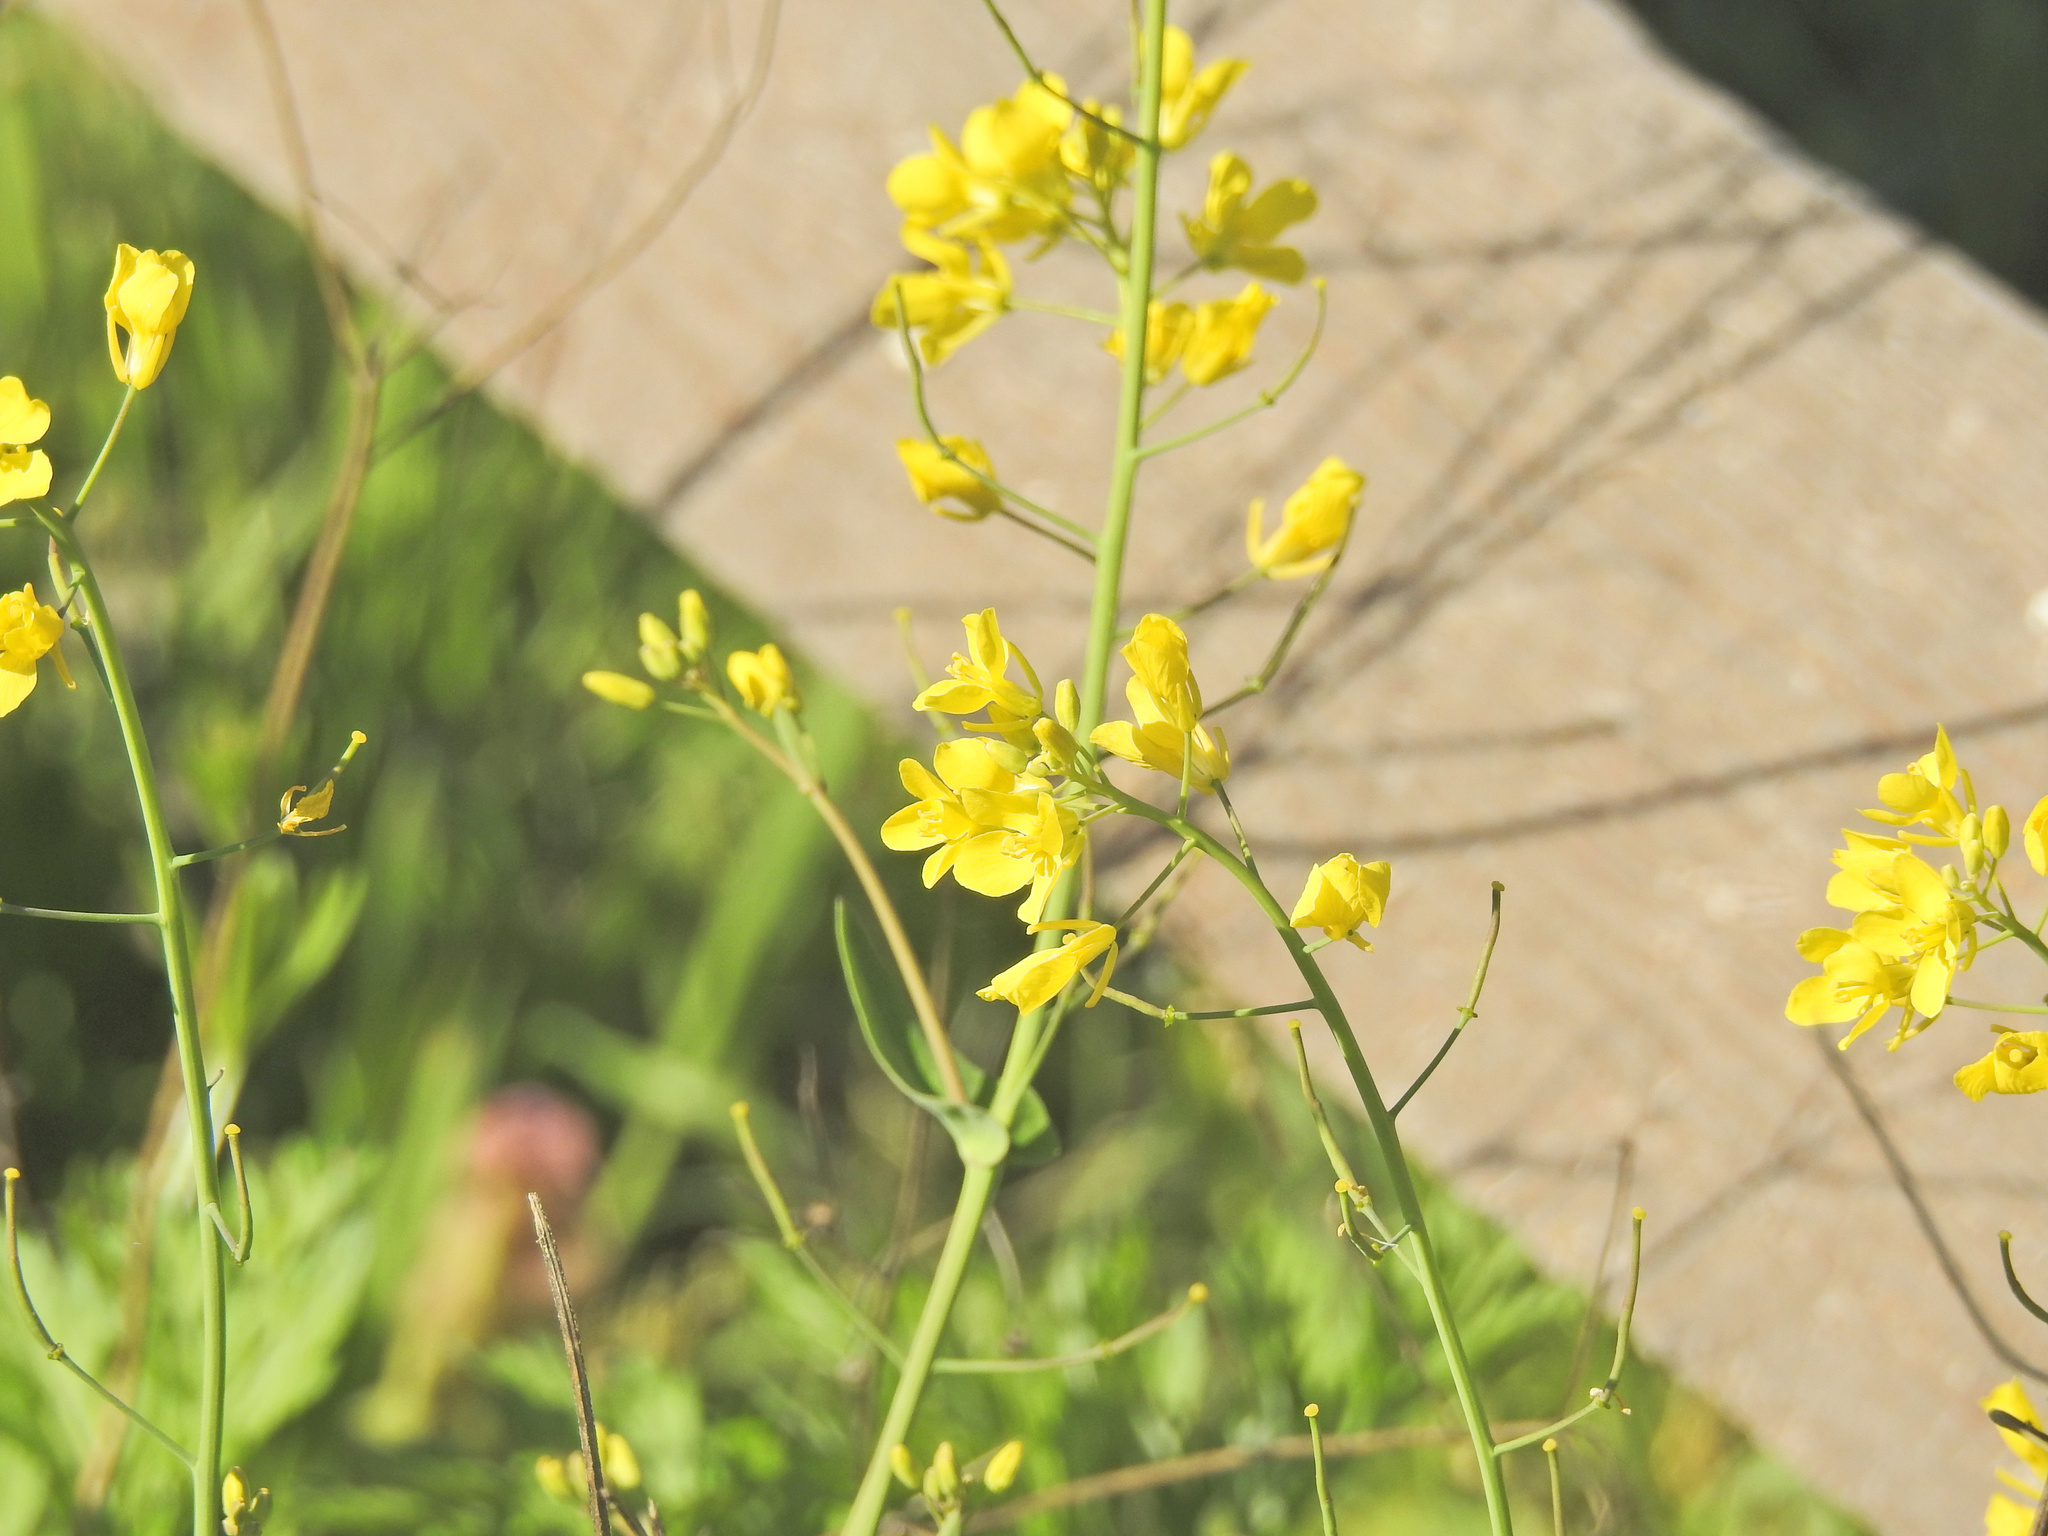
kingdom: Plantae
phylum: Tracheophyta
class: Magnoliopsida
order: Brassicales
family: Brassicaceae
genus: Brassica
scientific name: Brassica rapa
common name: Field mustard
